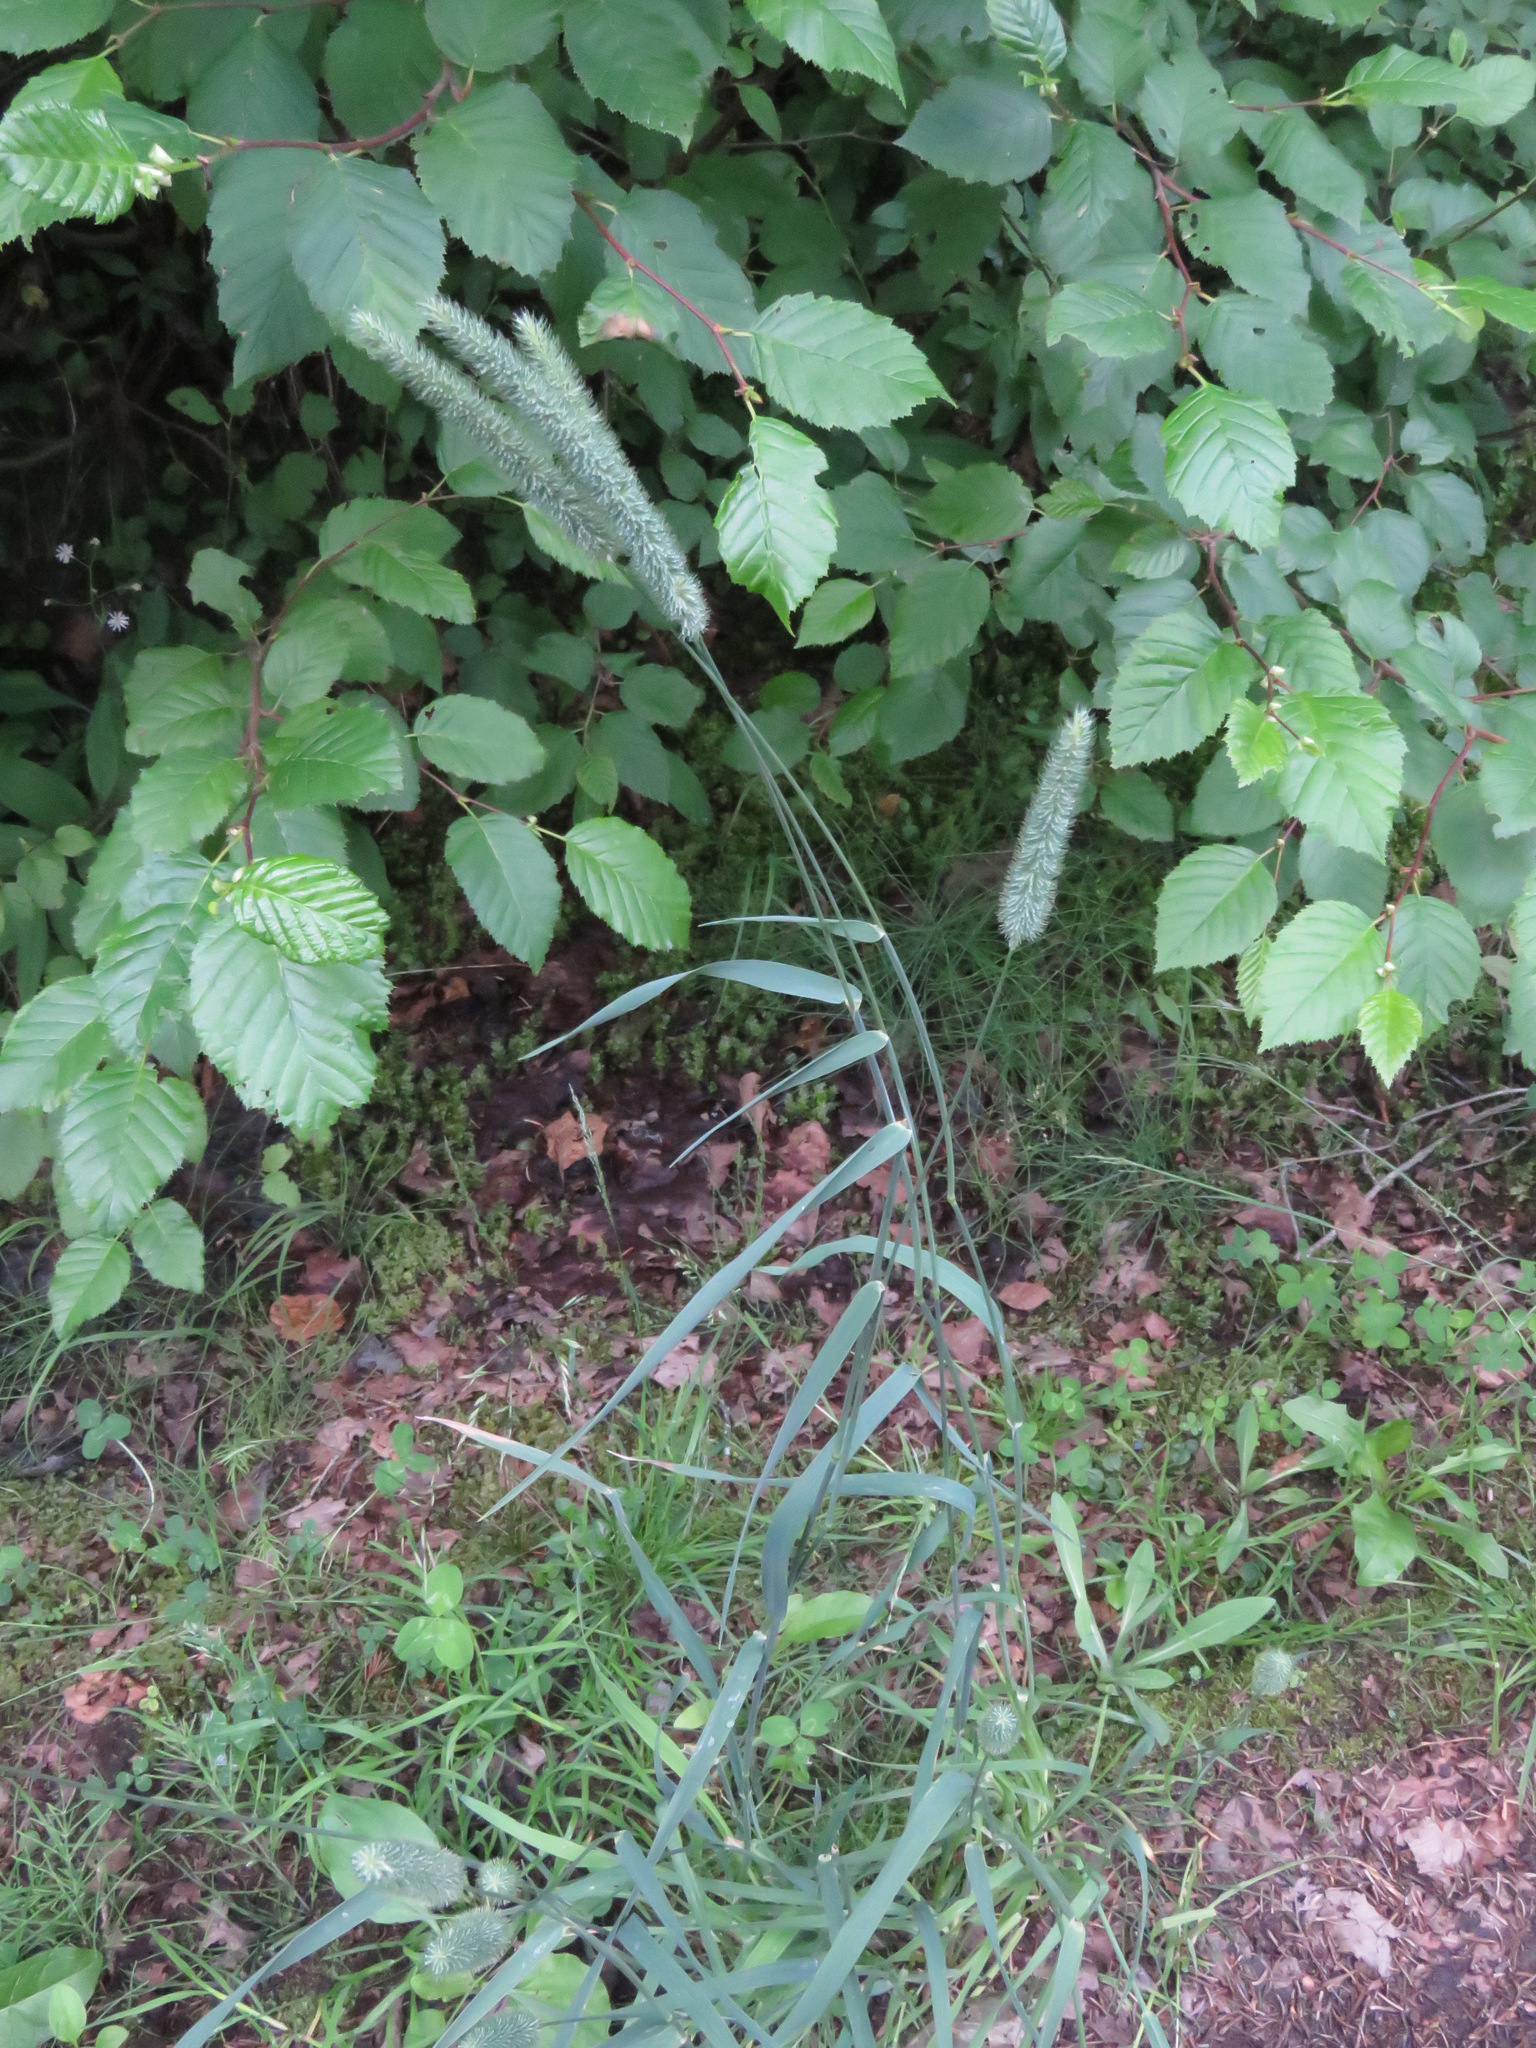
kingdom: Plantae
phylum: Tracheophyta
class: Liliopsida
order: Poales
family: Poaceae
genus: Phleum
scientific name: Phleum pratense
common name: Timothy grass
